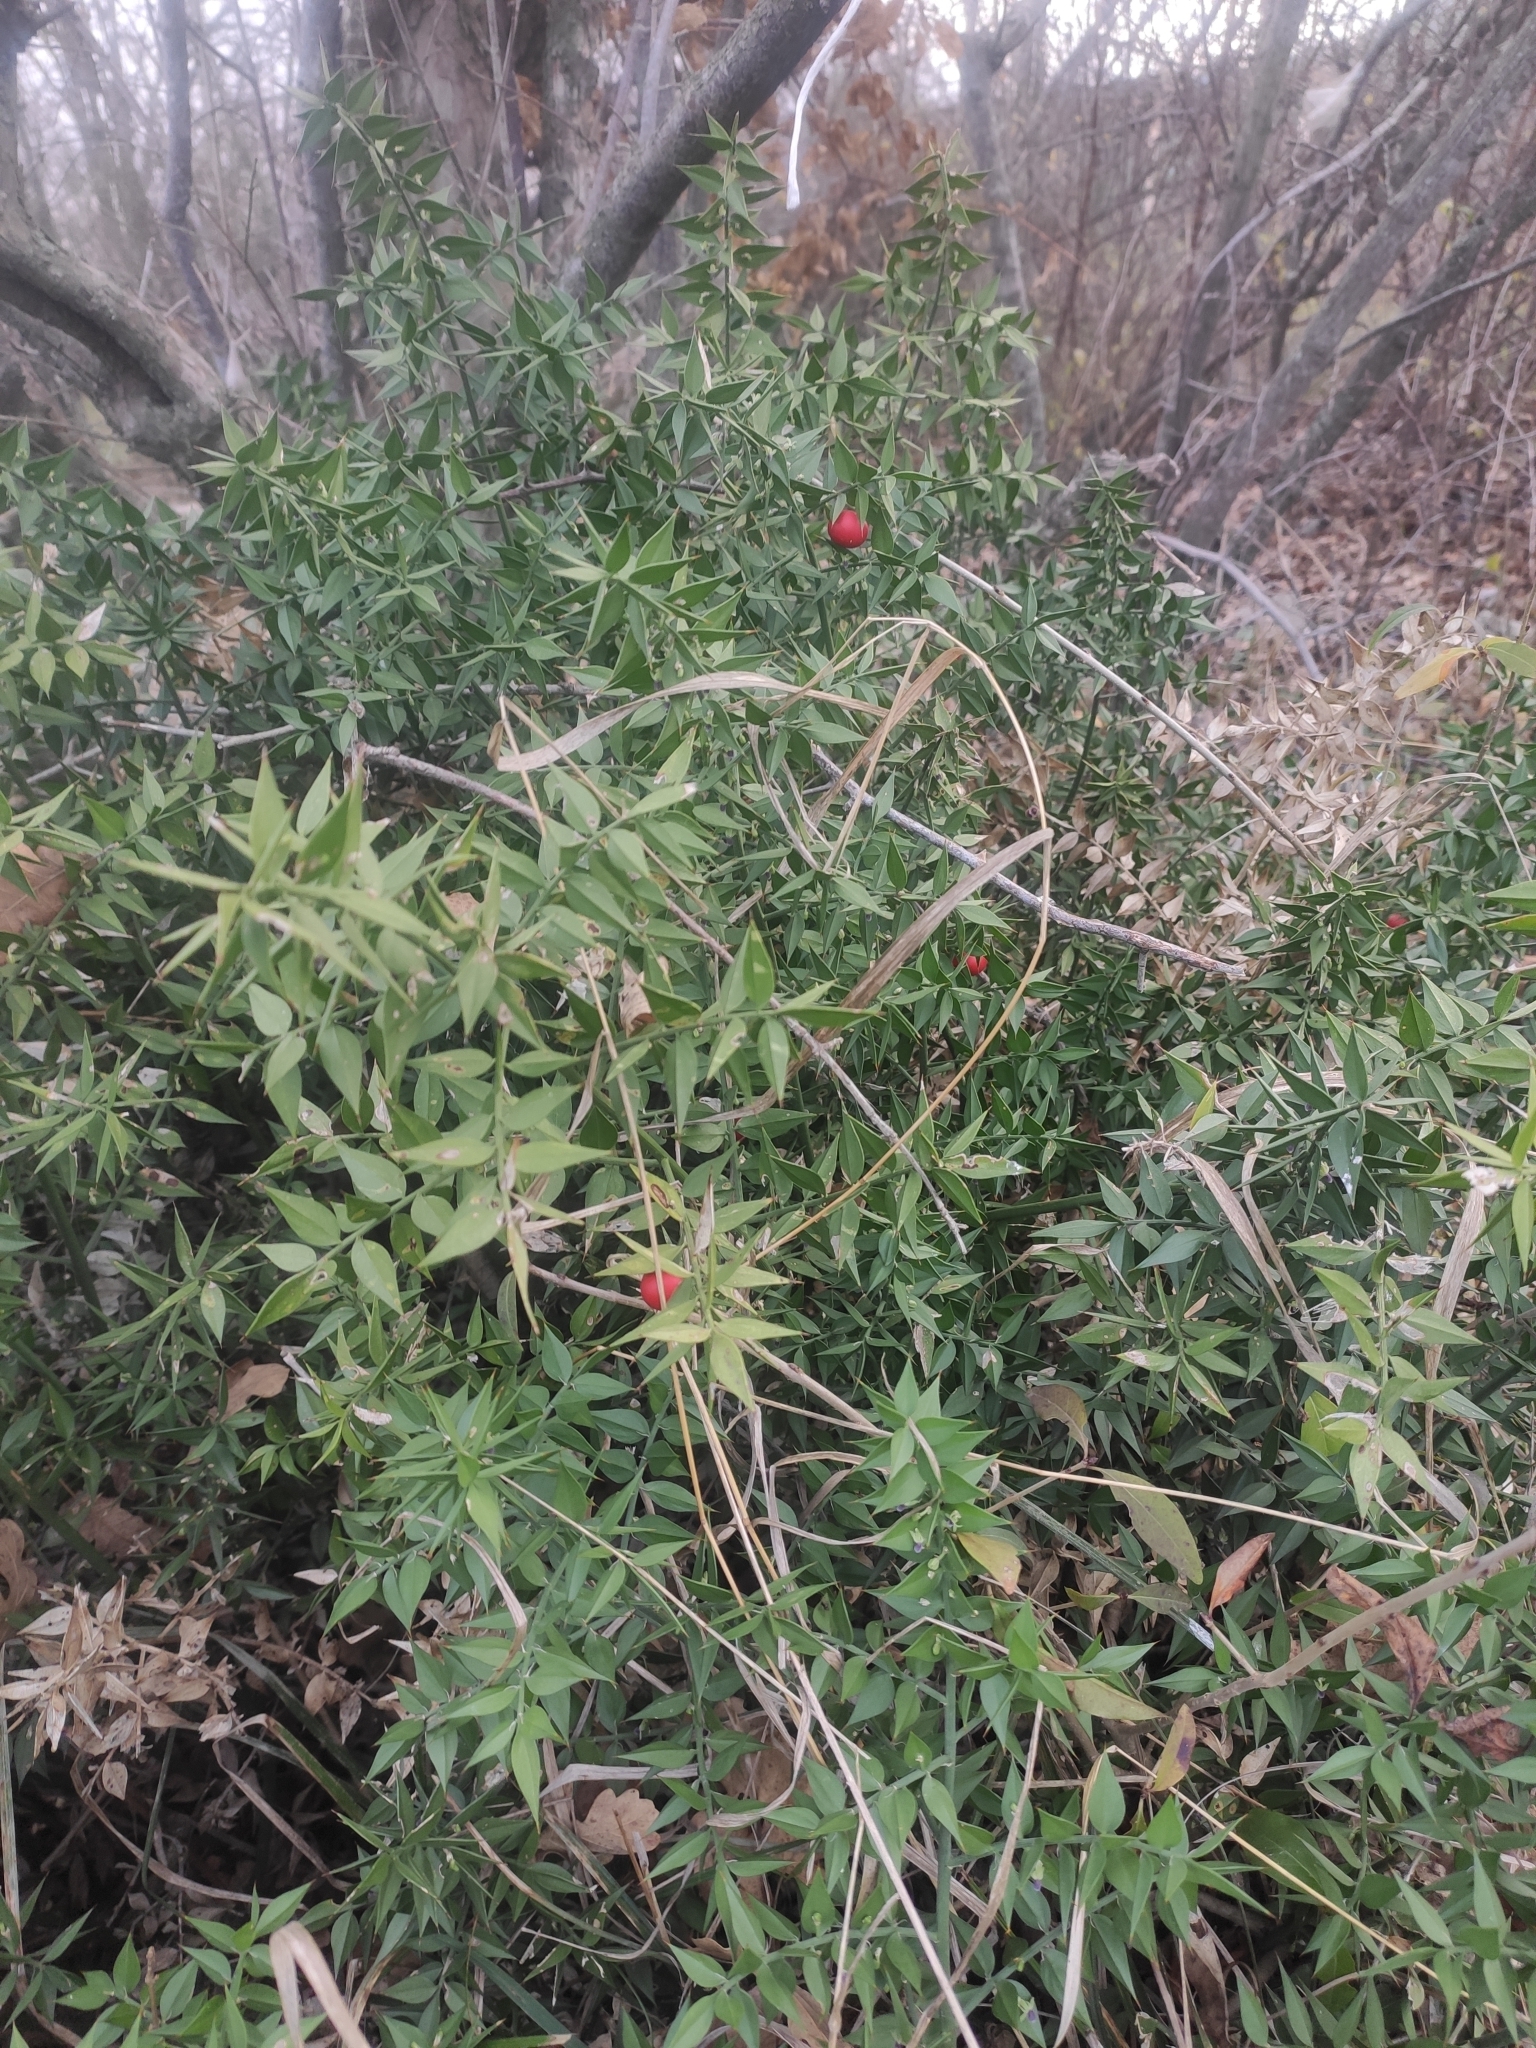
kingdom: Plantae
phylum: Tracheophyta
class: Liliopsida
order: Asparagales
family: Asparagaceae
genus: Ruscus
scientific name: Ruscus aculeatus
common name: Butcher's-broom
